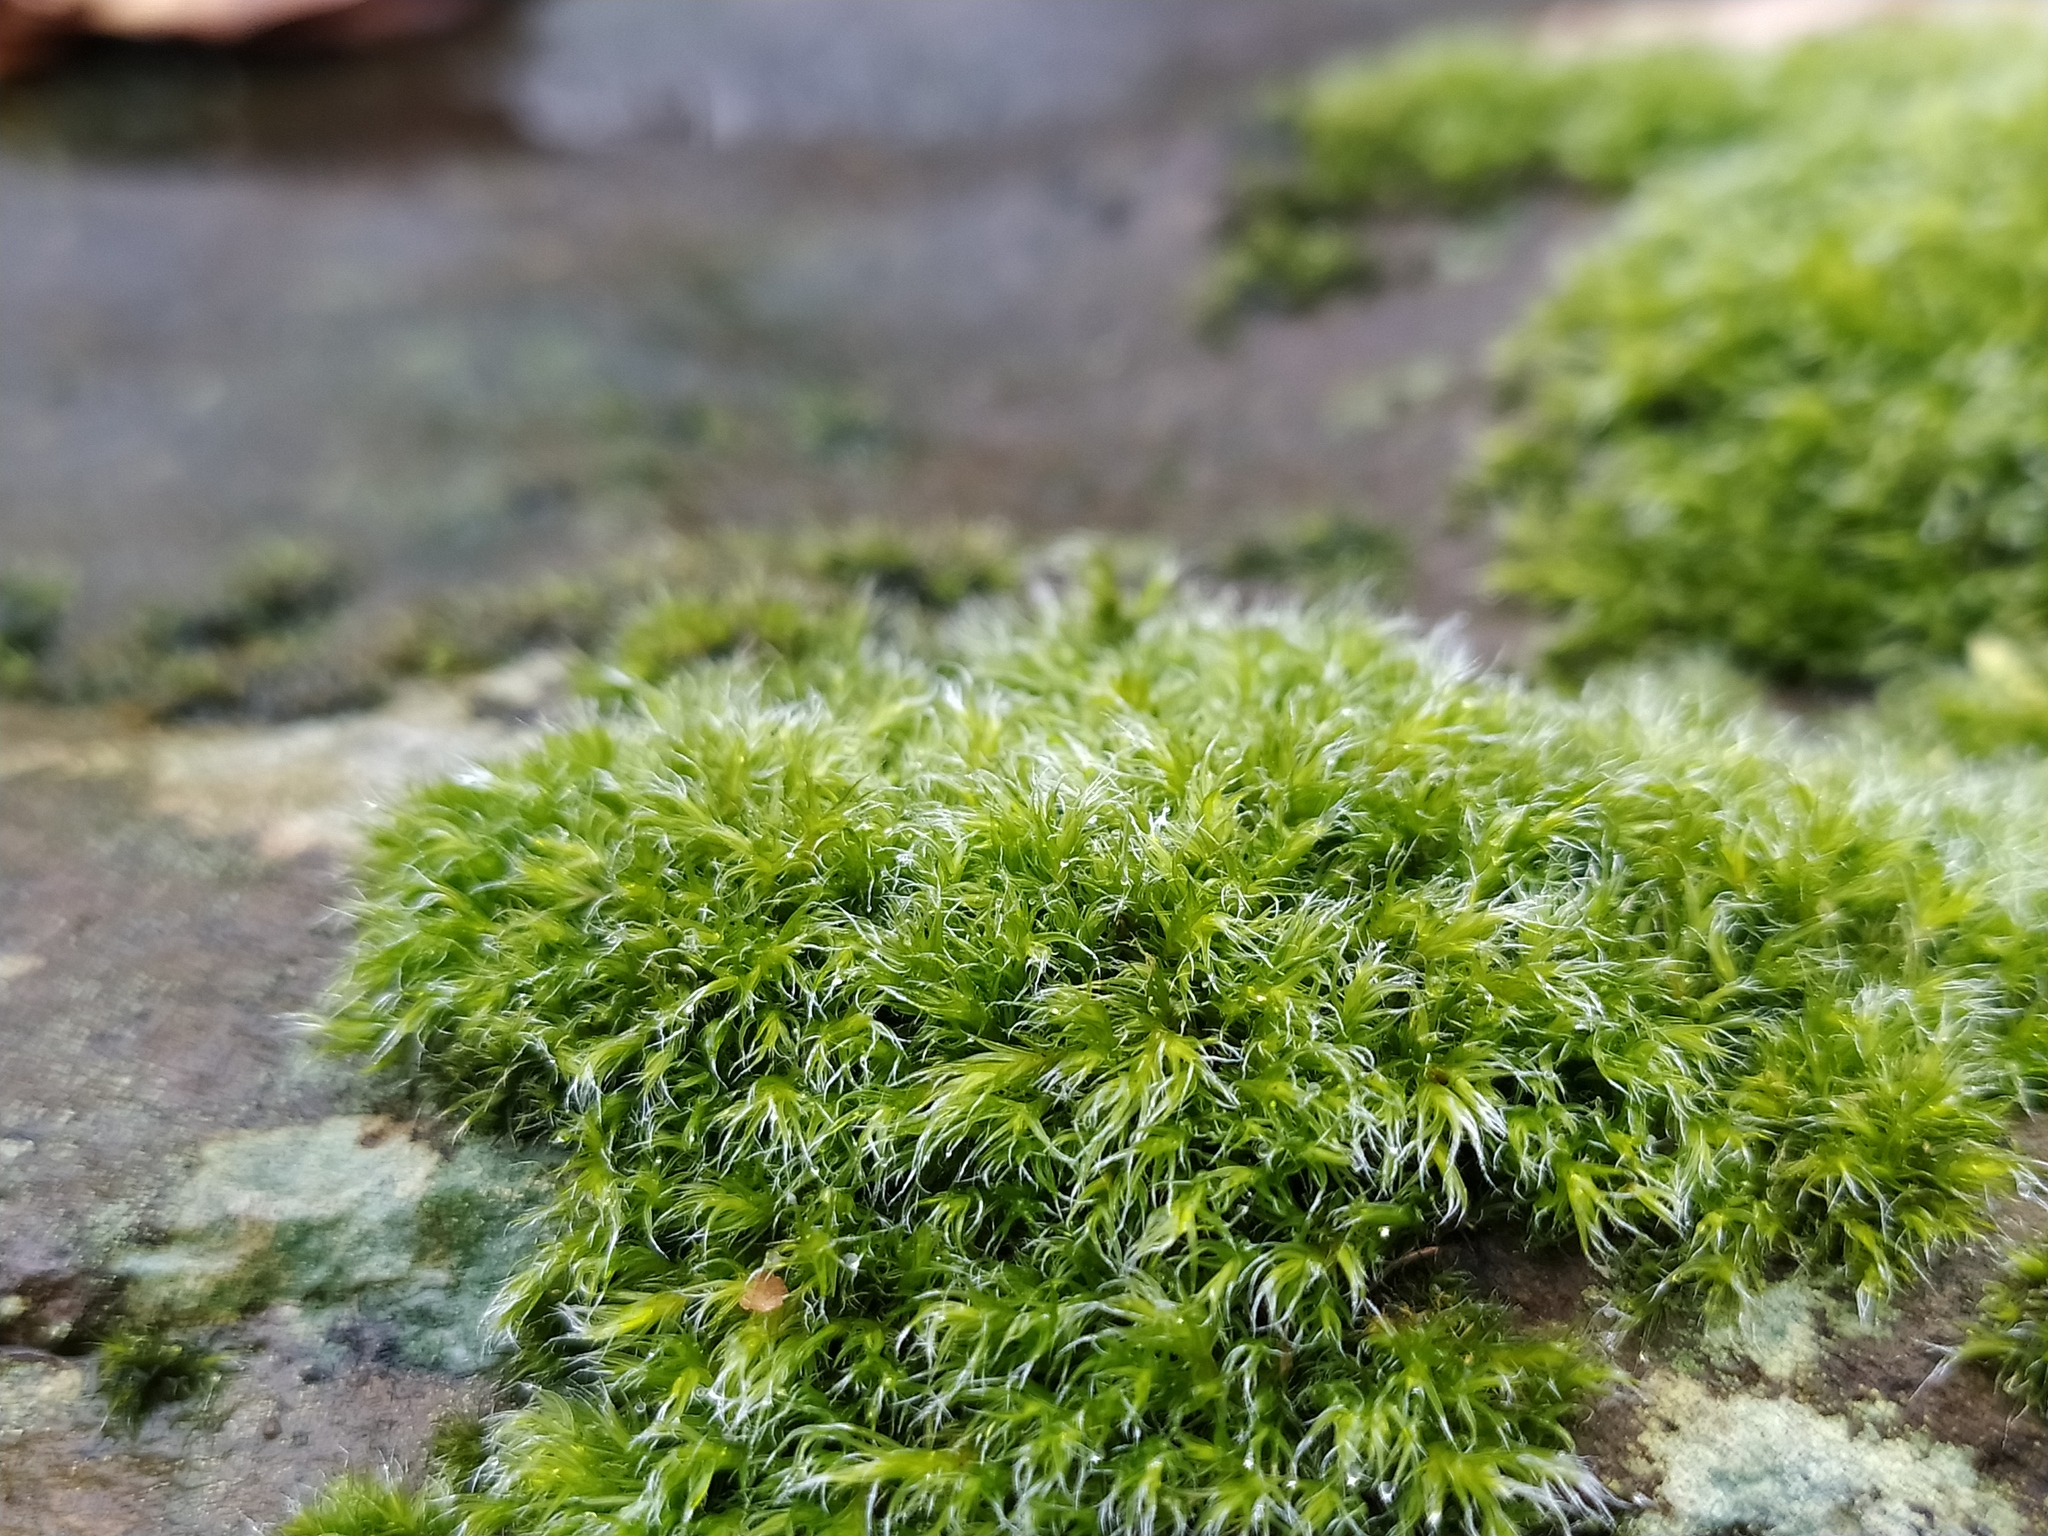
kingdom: Plantae
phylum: Bryophyta
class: Bryopsida
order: Grimmiales
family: Grimmiaceae
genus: Bucklandiella
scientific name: Bucklandiella heterosticha
